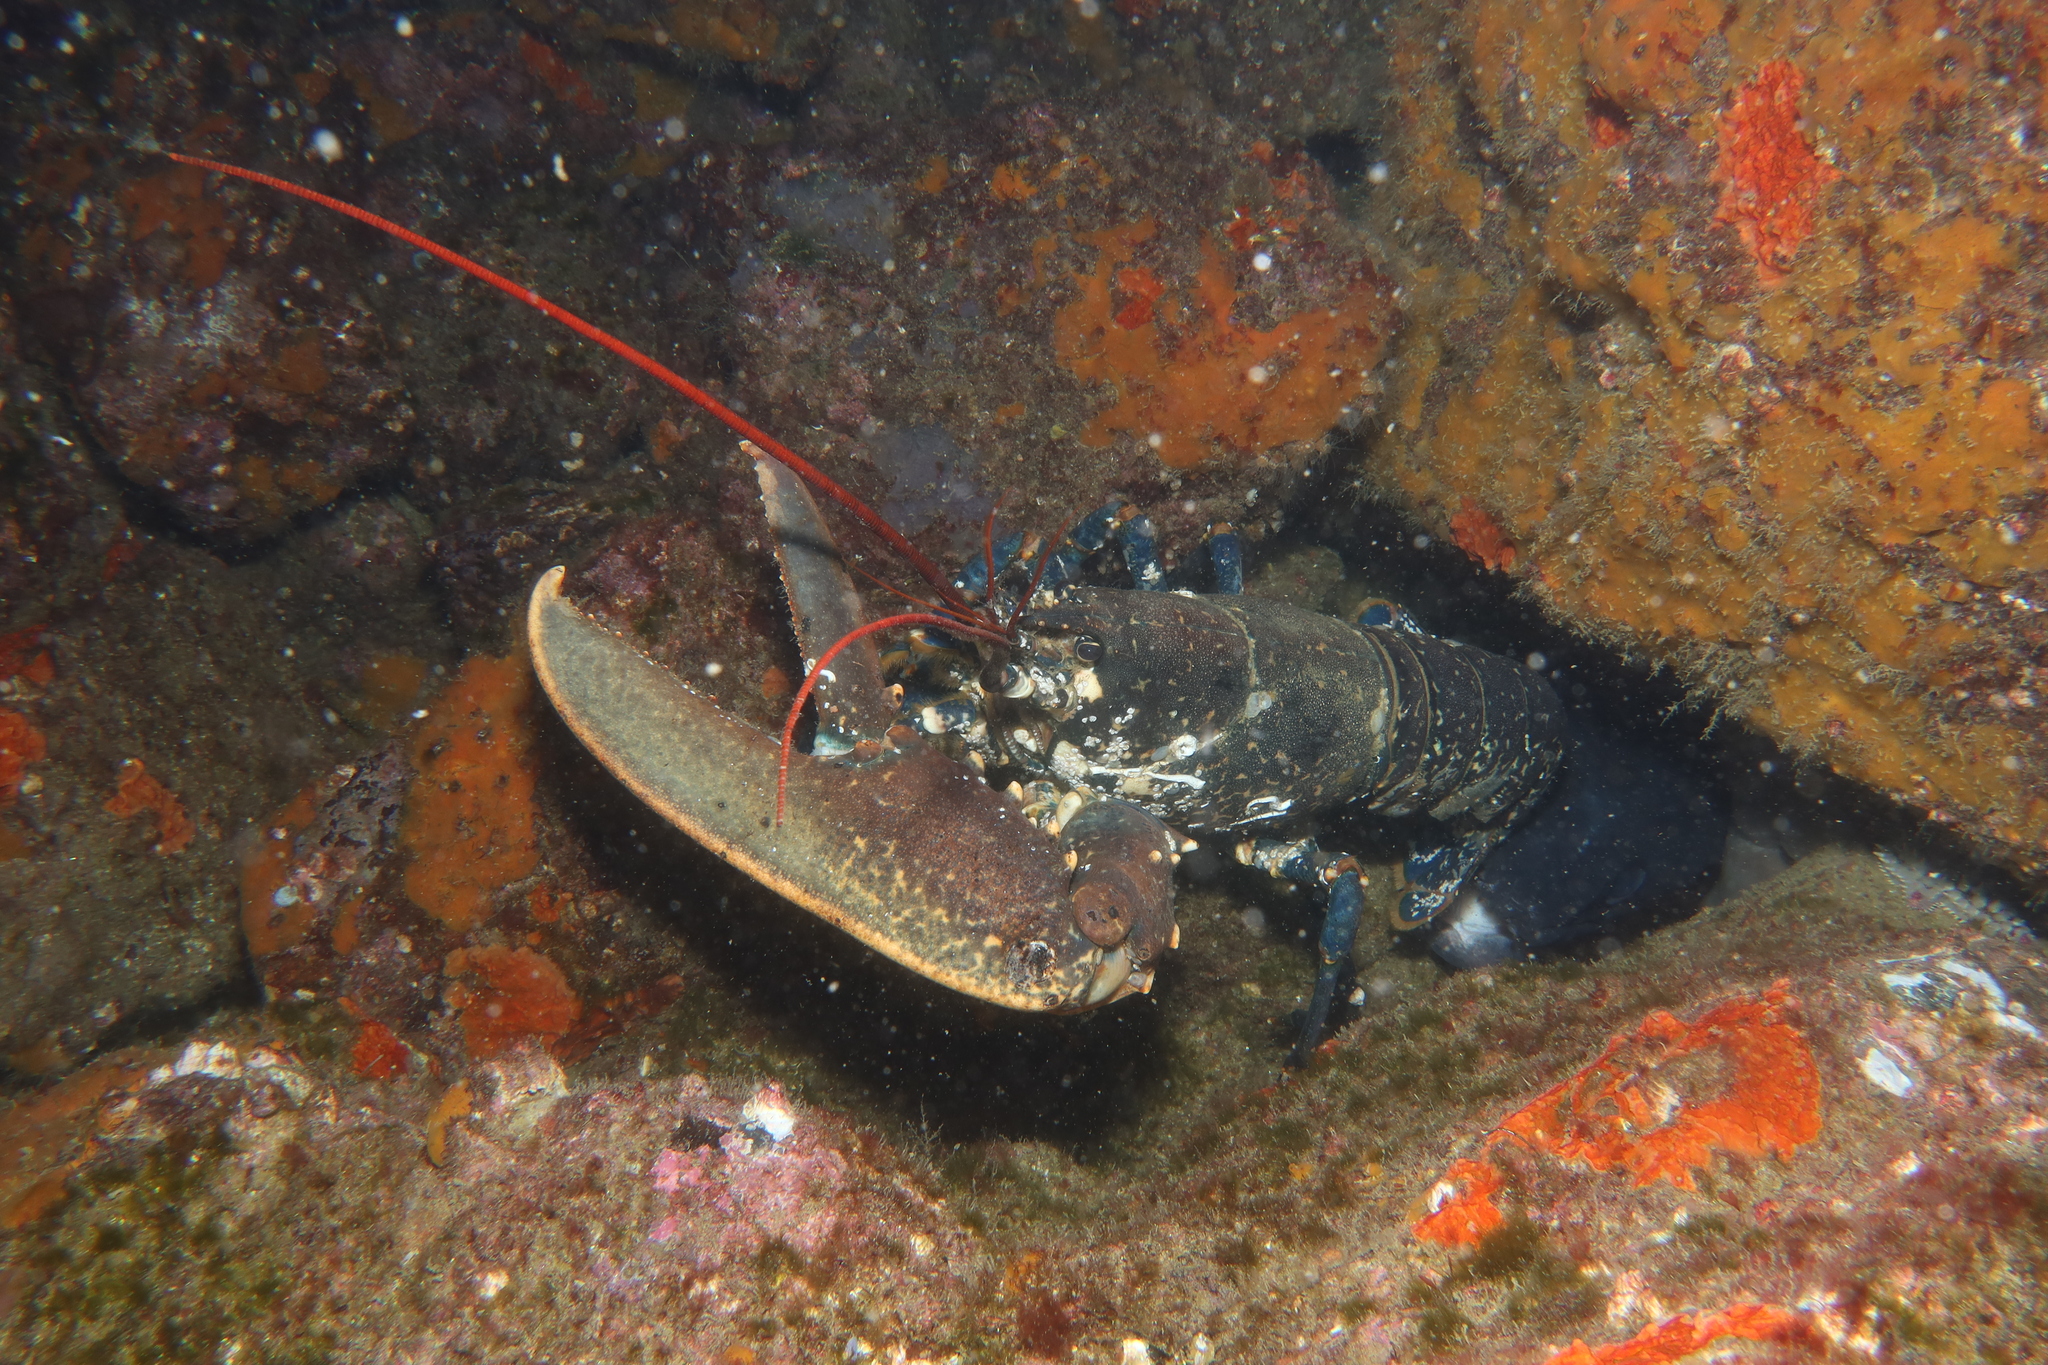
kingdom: Animalia
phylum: Arthropoda
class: Malacostraca
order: Decapoda
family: Nephropidae
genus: Homarus
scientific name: Homarus gammarus
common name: European lobster
